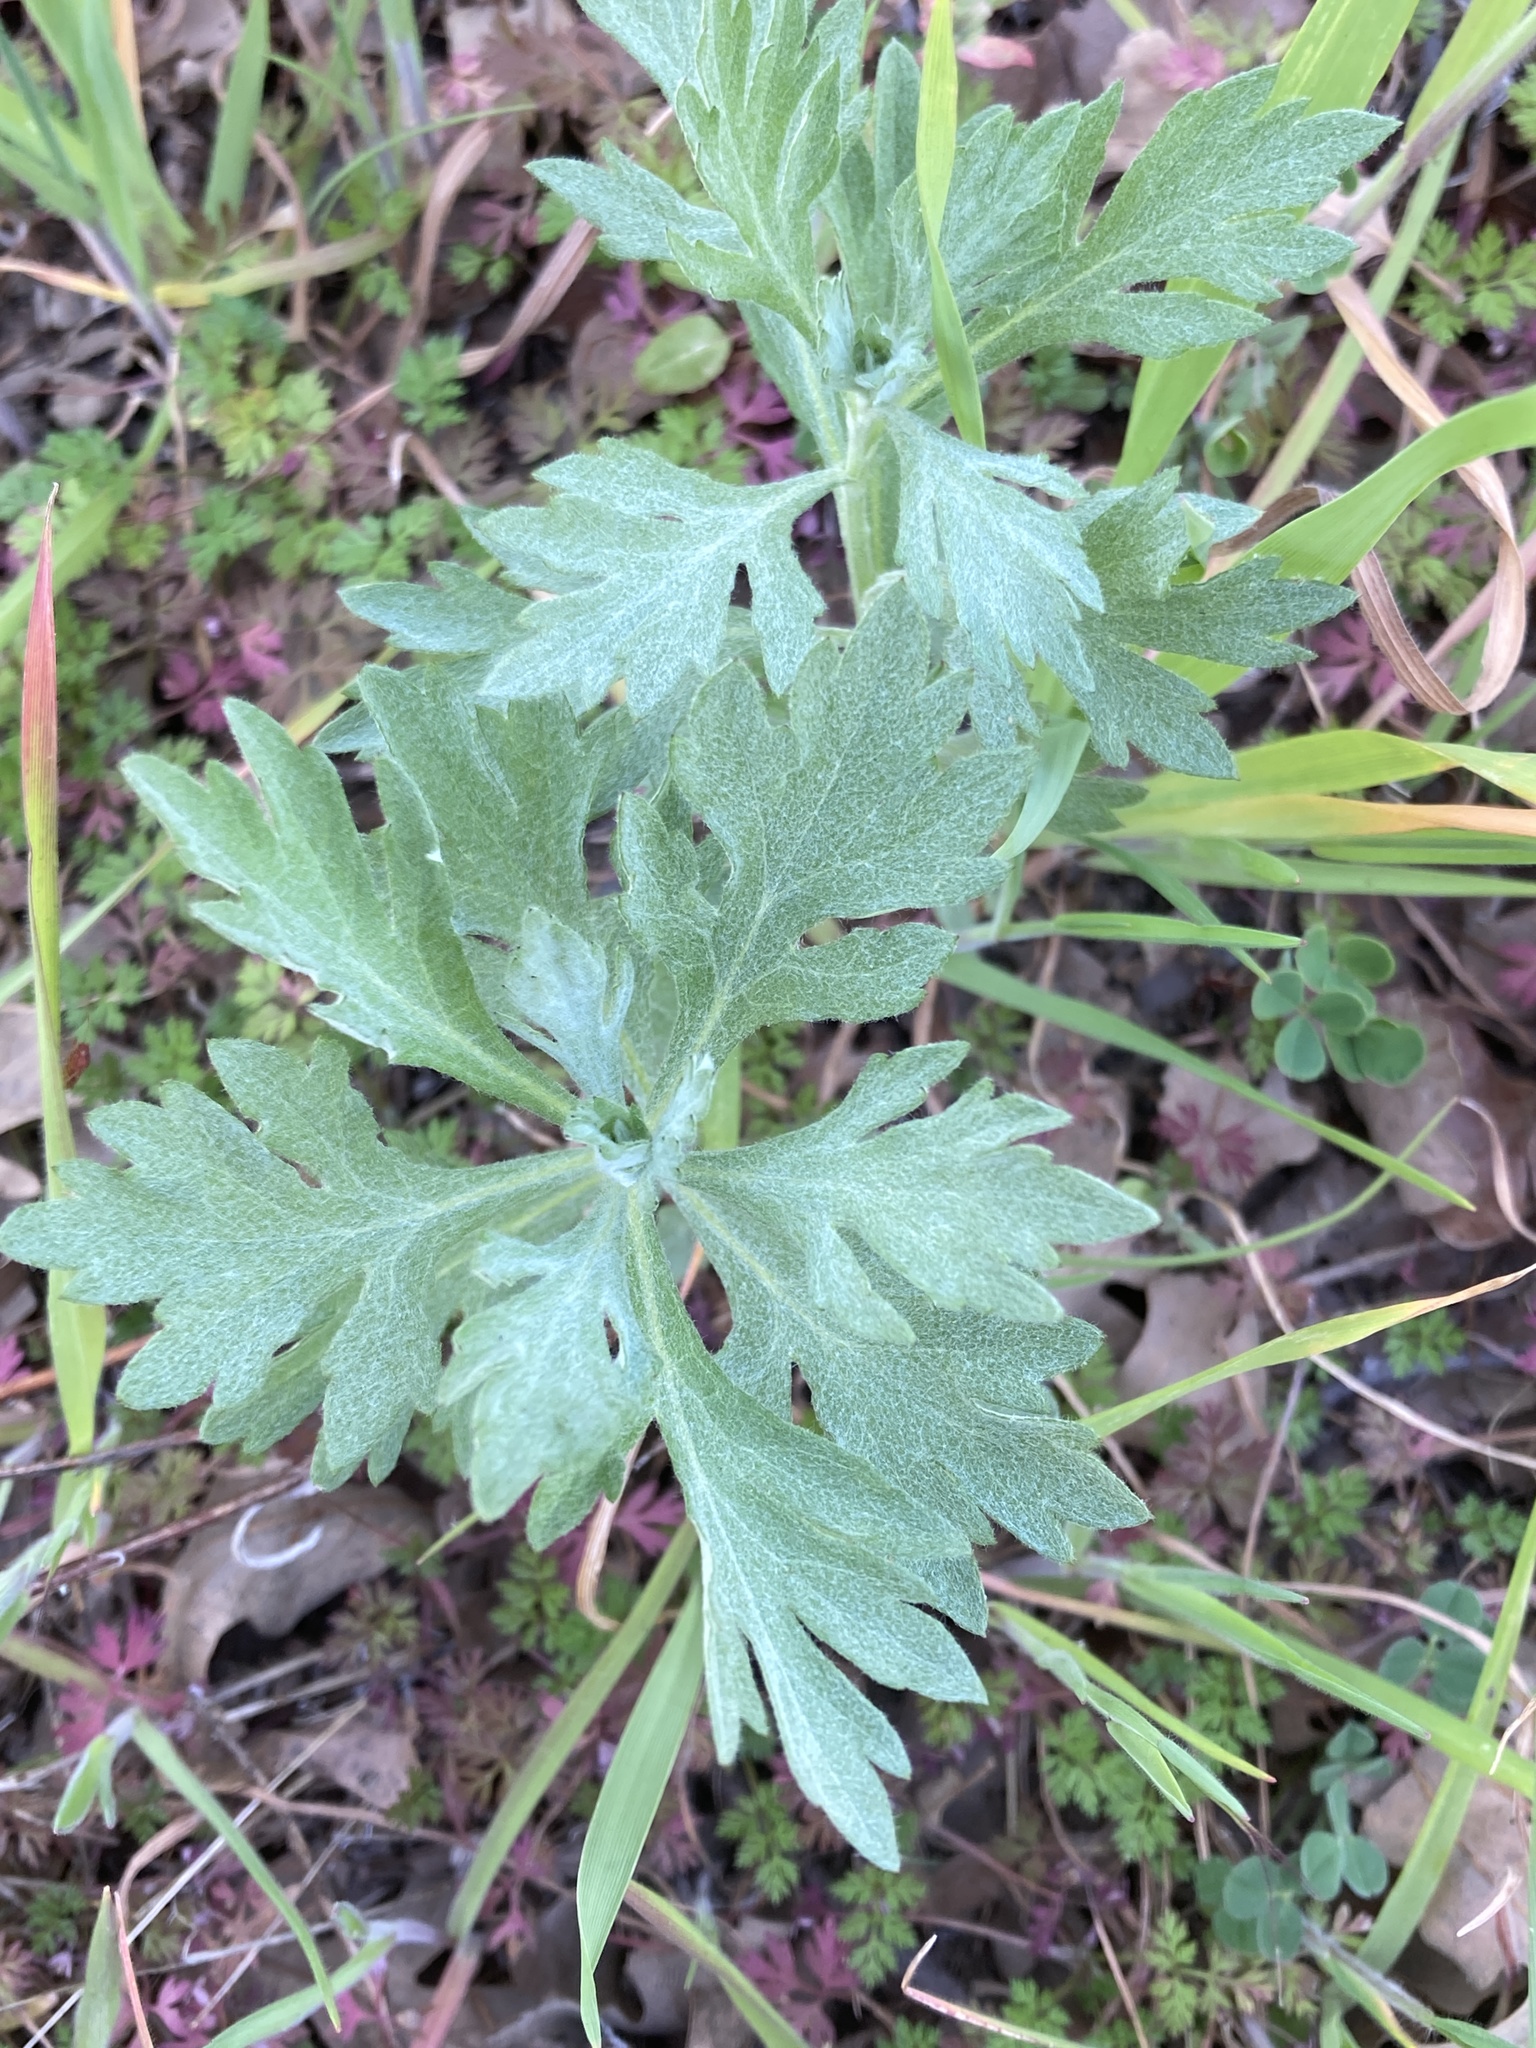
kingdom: Plantae
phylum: Tracheophyta
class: Magnoliopsida
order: Asterales
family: Asteraceae
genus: Artemisia
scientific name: Artemisia douglasiana
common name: Northwest mugwort
